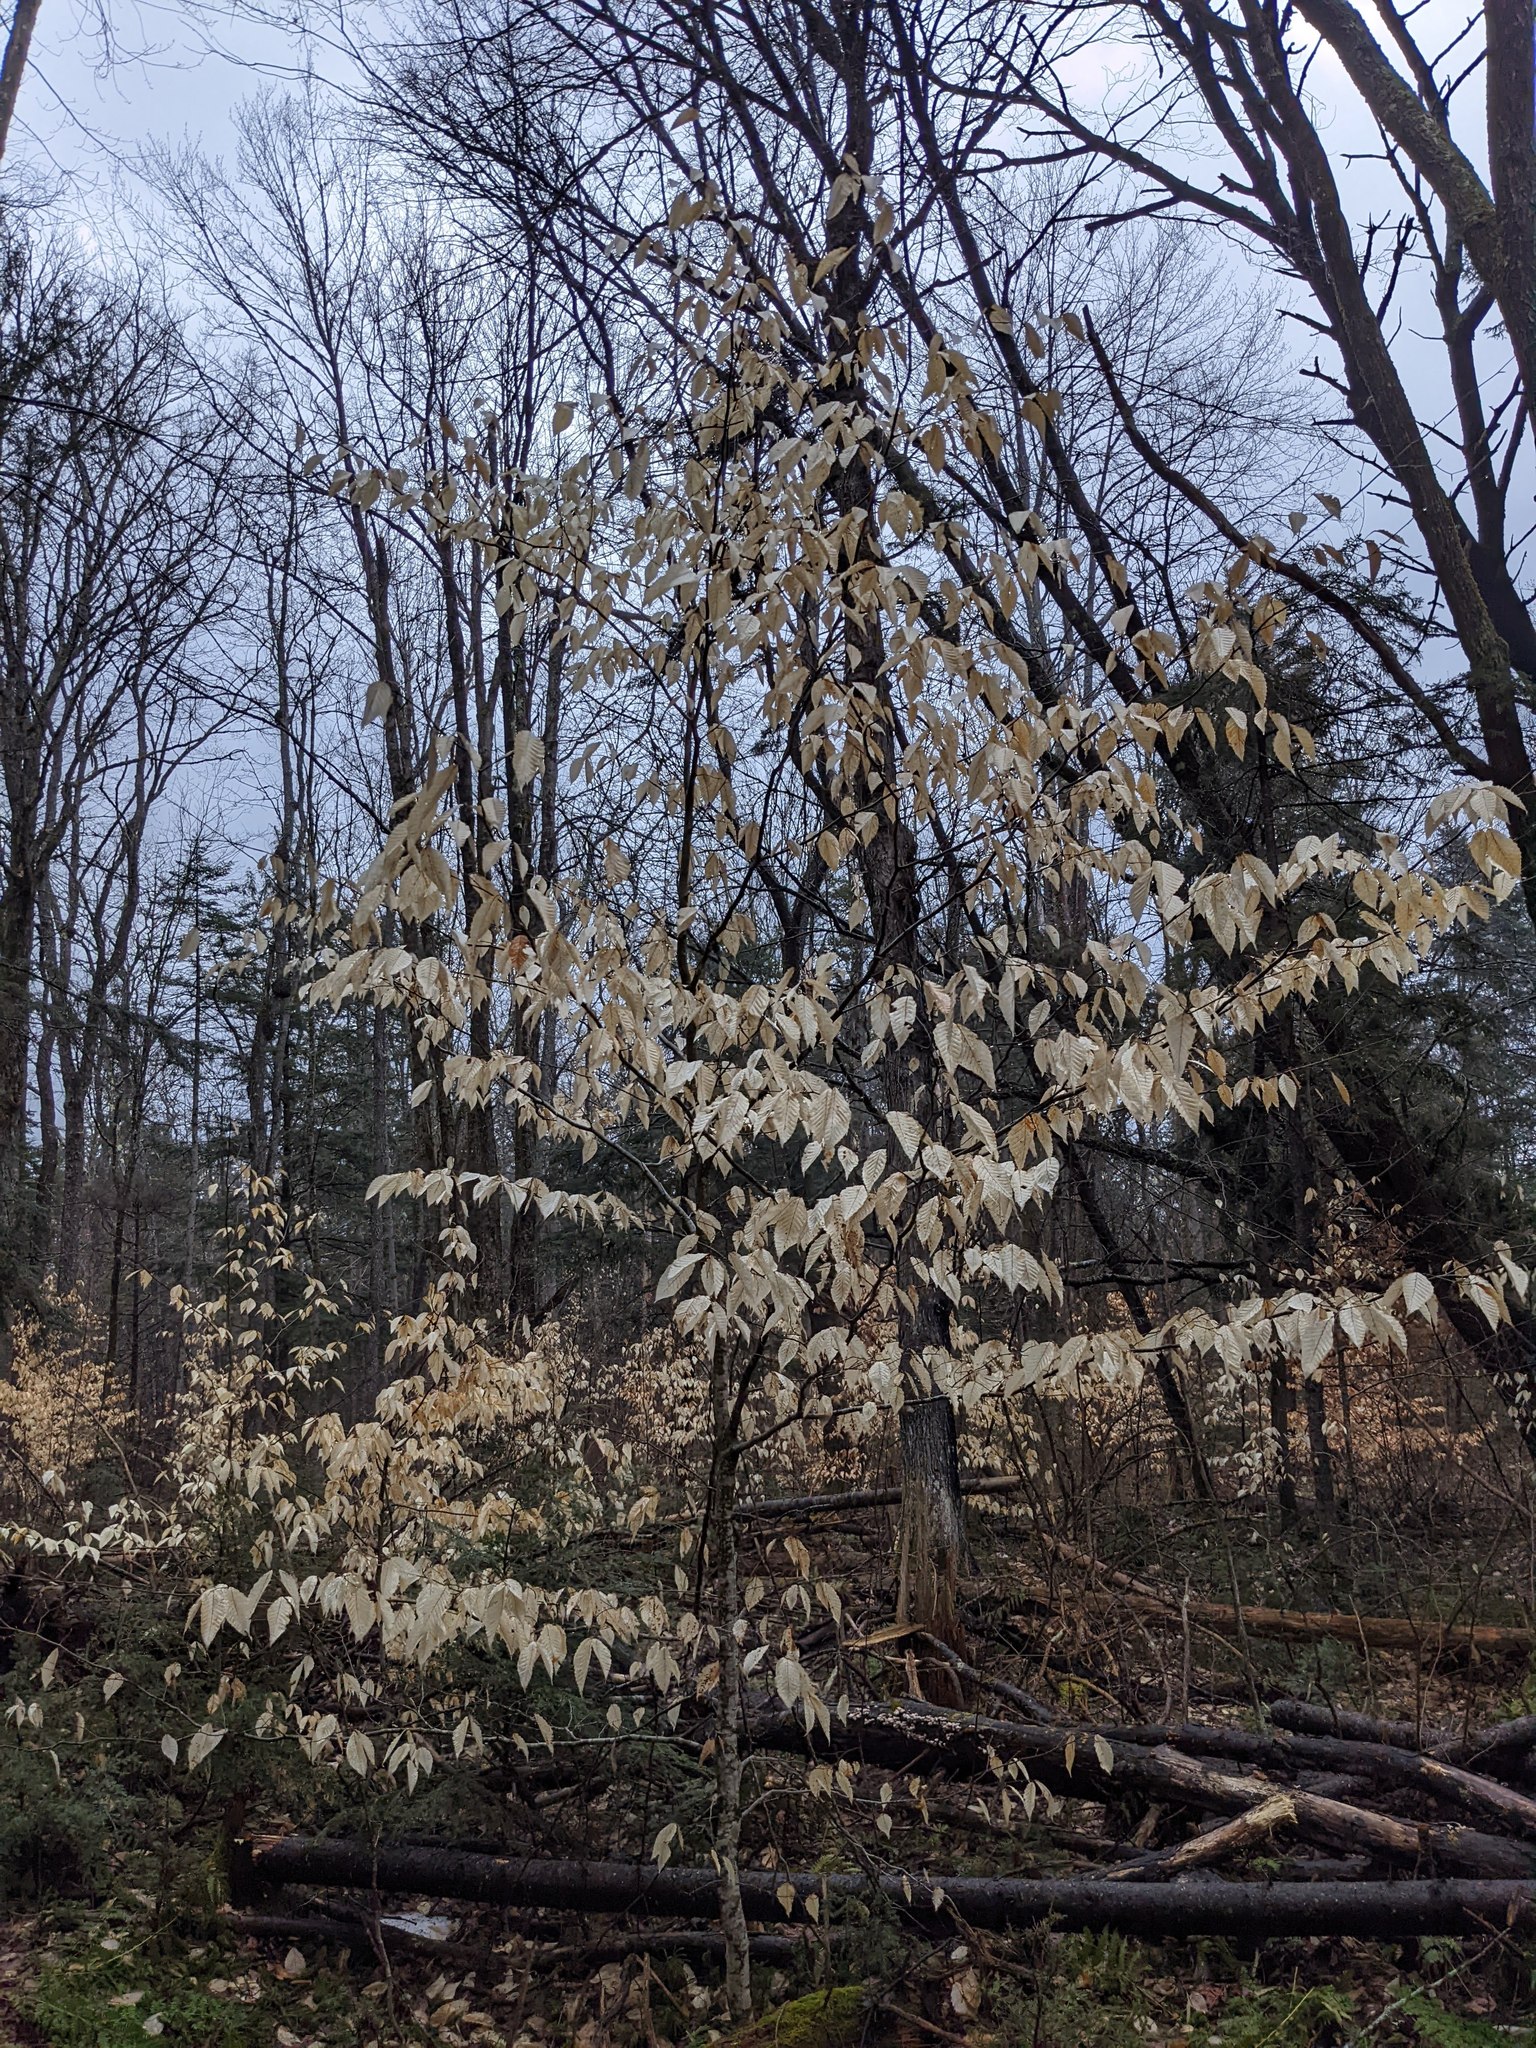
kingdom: Plantae
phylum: Tracheophyta
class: Magnoliopsida
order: Fagales
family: Fagaceae
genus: Fagus
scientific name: Fagus grandifolia
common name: American beech
